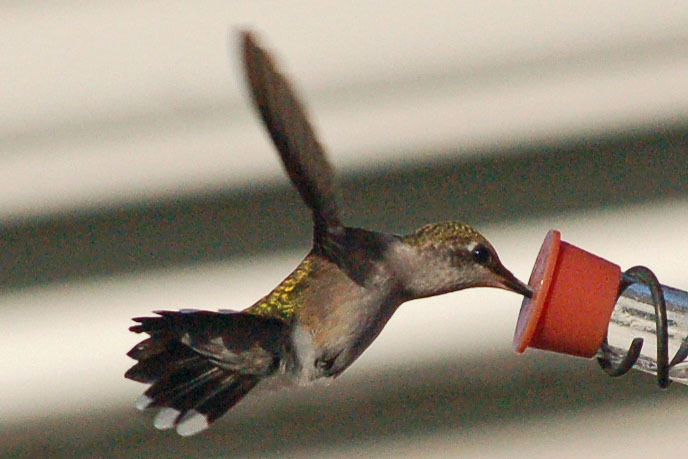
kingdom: Animalia
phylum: Chordata
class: Aves
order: Apodiformes
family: Trochilidae
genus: Archilochus
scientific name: Archilochus colubris
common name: Ruby-throated hummingbird
